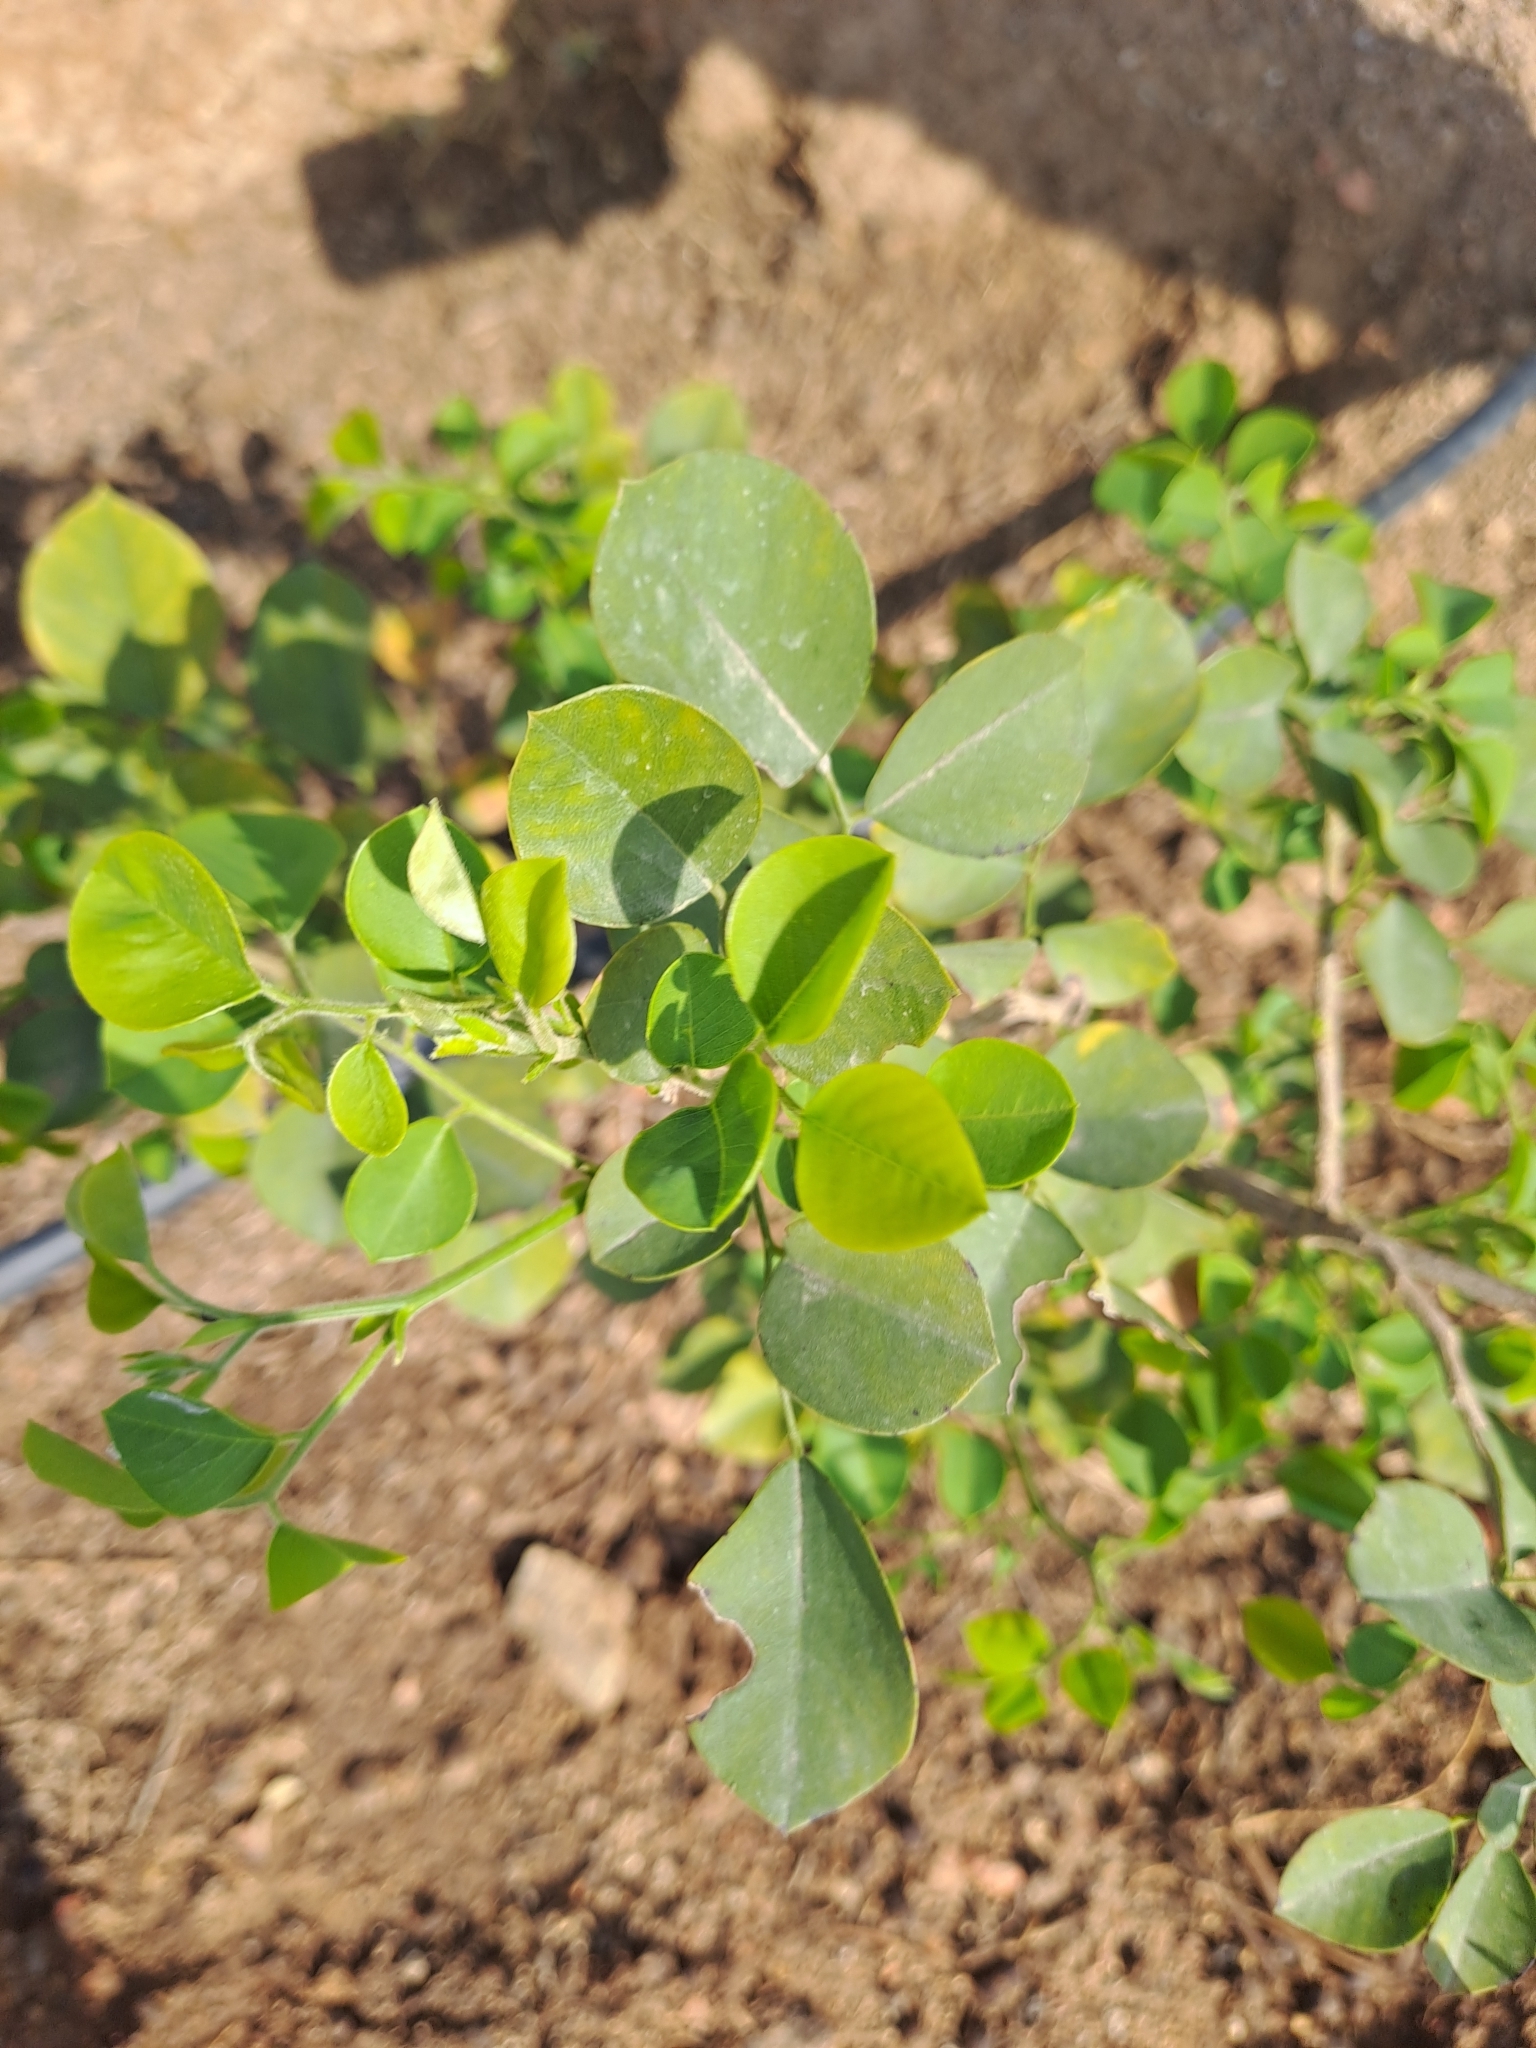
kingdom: Plantae
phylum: Tracheophyta
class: Magnoliopsida
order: Fabales
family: Fabaceae
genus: Dalbergia
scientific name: Dalbergia sissoo
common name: Indian rosewood
